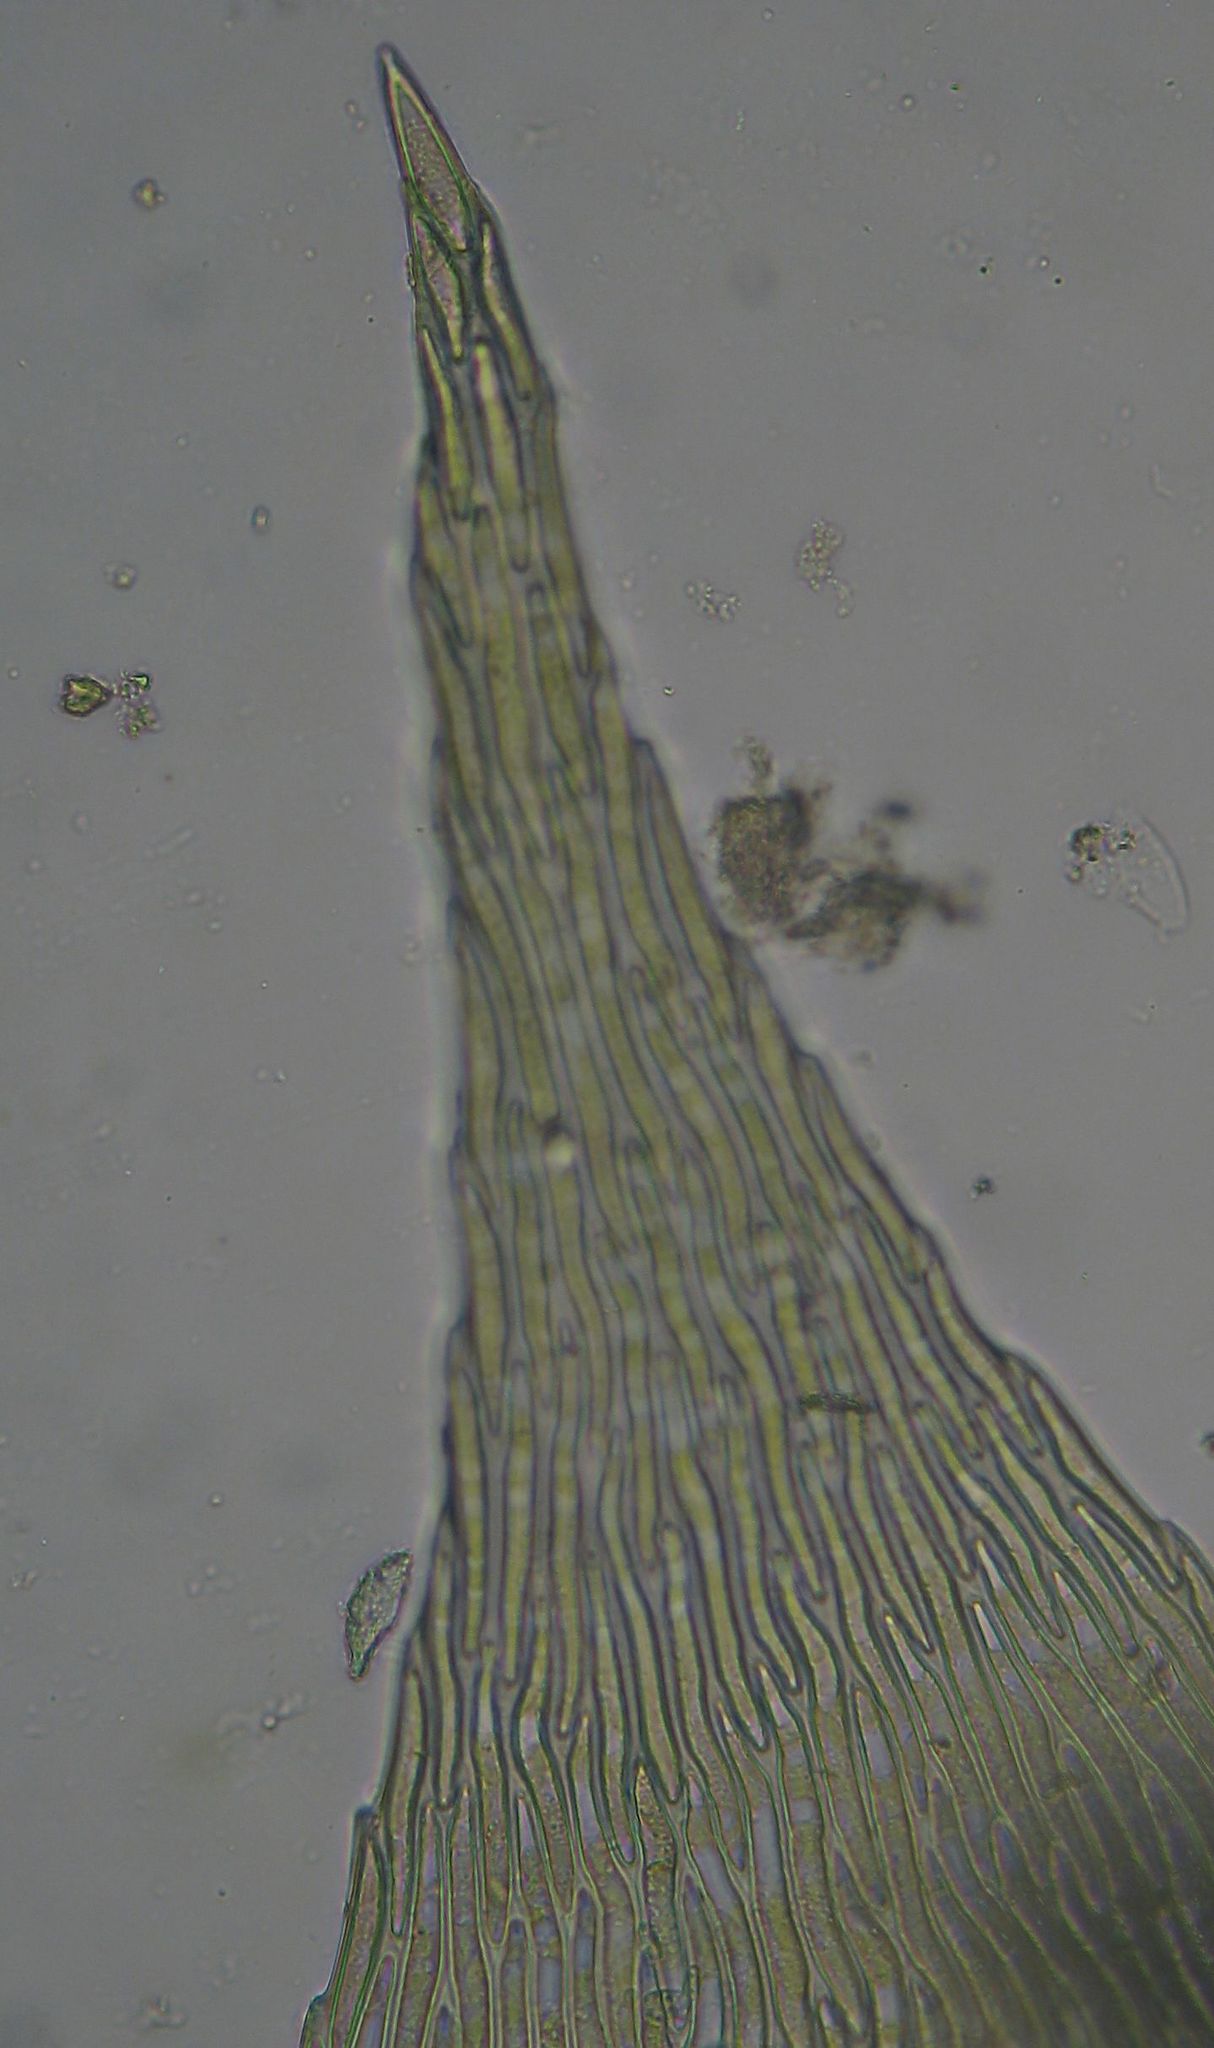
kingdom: Plantae
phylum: Bryophyta
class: Bryopsida
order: Hypnales
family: Brachytheciaceae
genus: Brachythecium
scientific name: Brachythecium rutabulum
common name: Rough-stalked feather-moss
